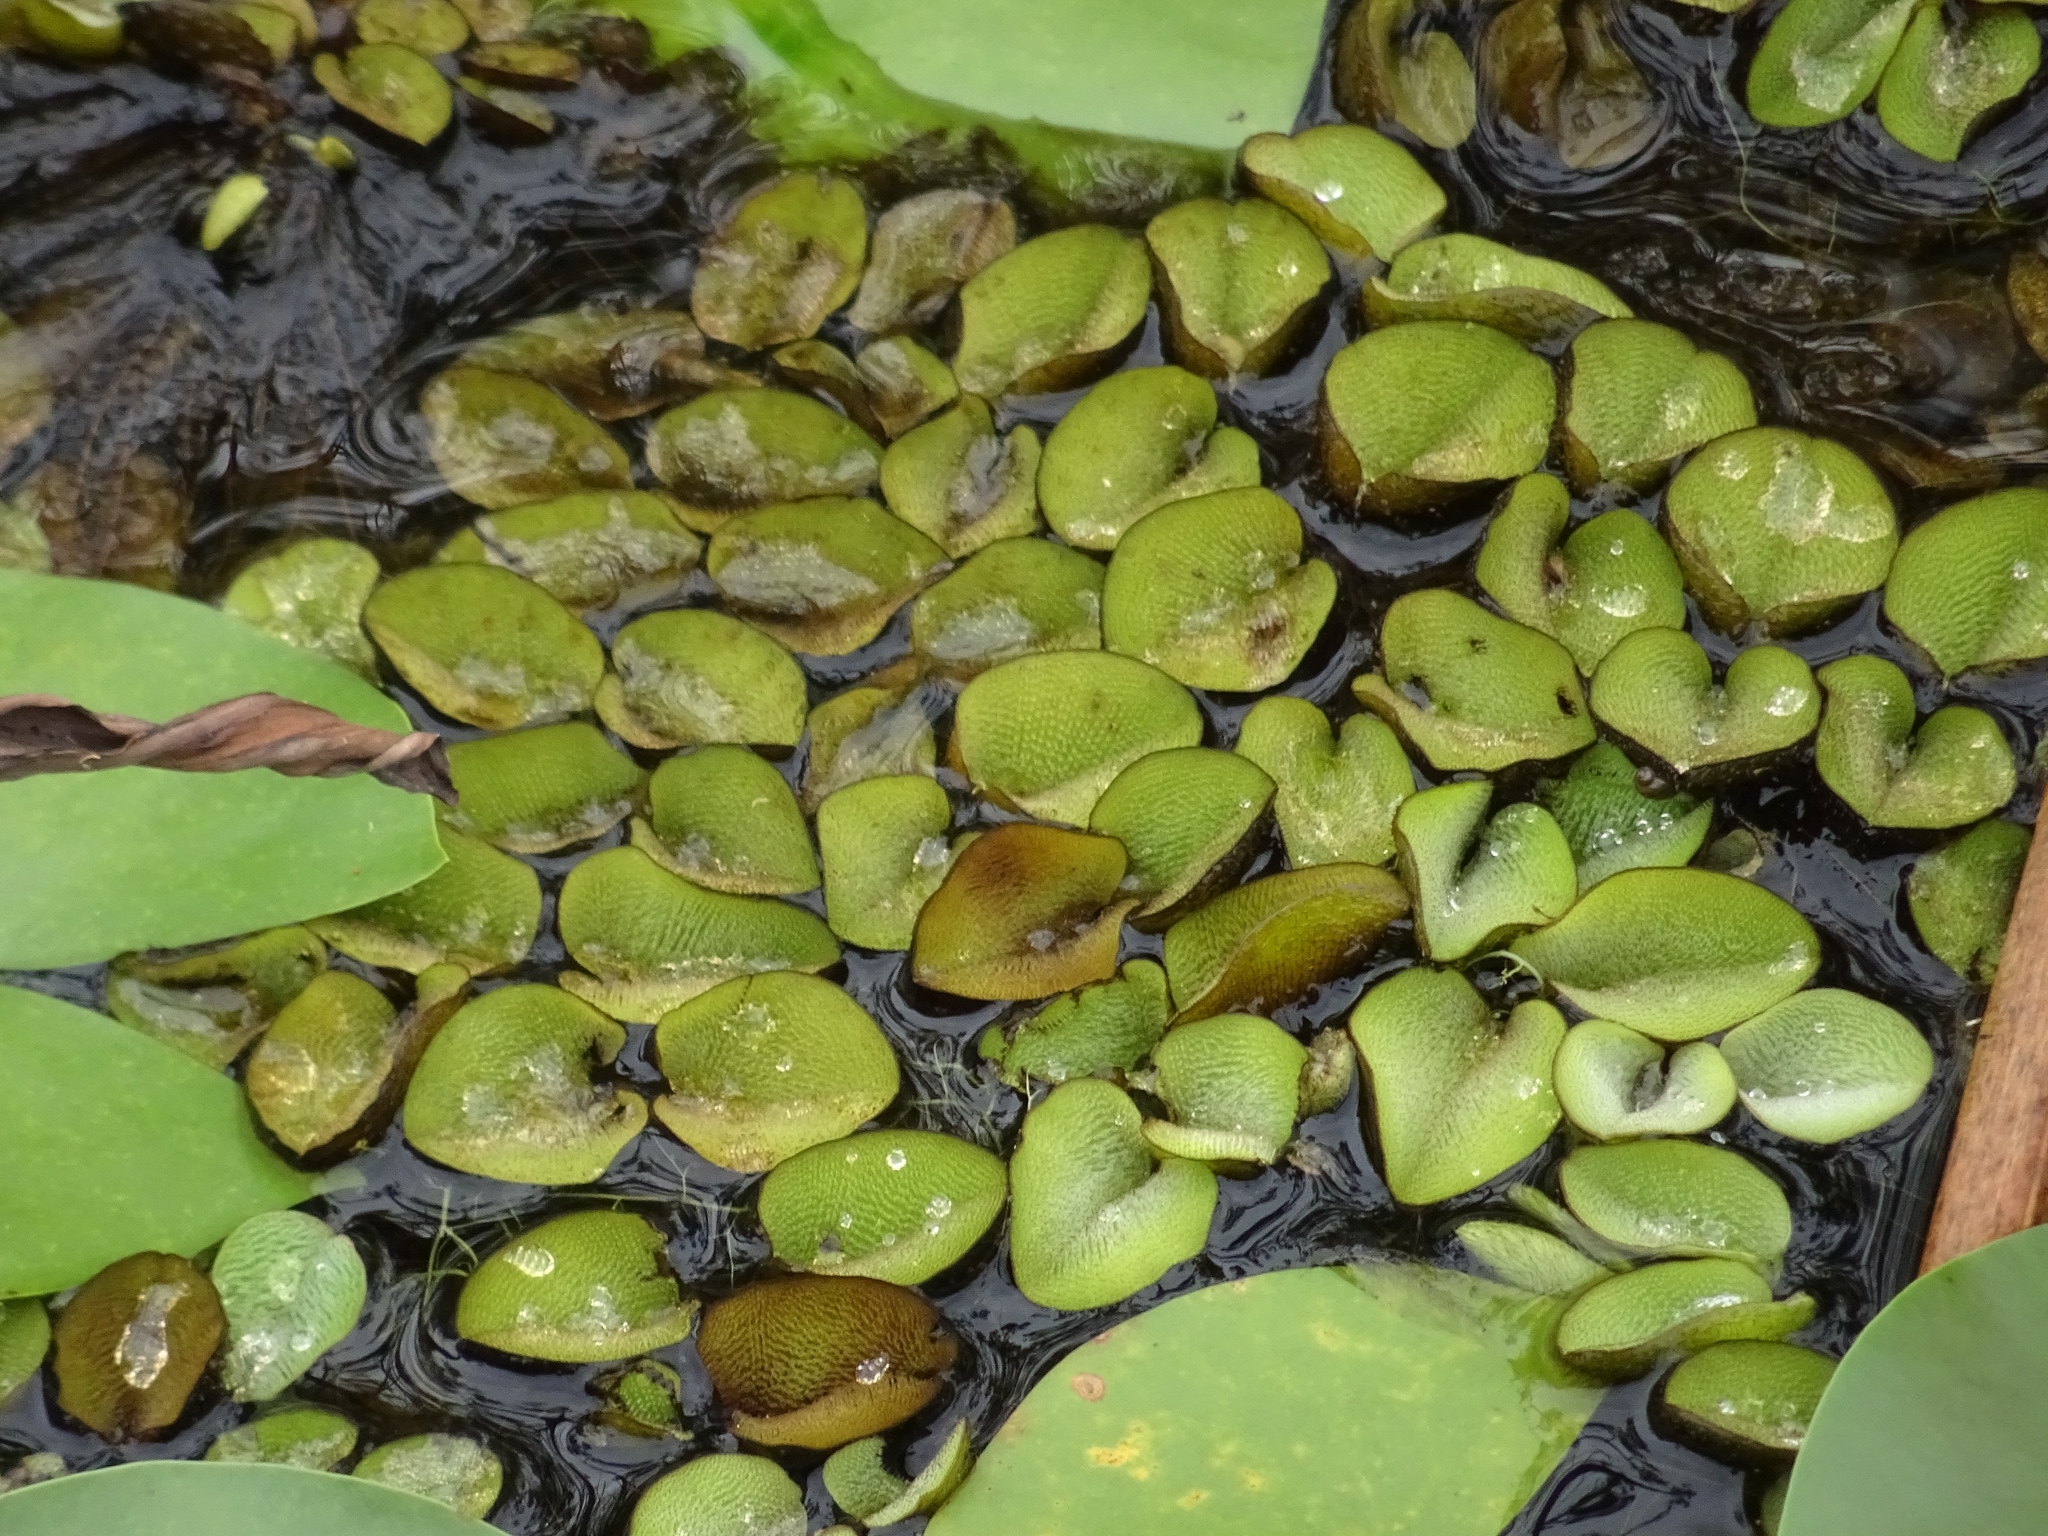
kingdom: Plantae
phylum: Tracheophyta
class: Polypodiopsida
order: Salviniales
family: Salviniaceae
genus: Salvinia
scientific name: Salvinia molesta
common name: Kariba weed
